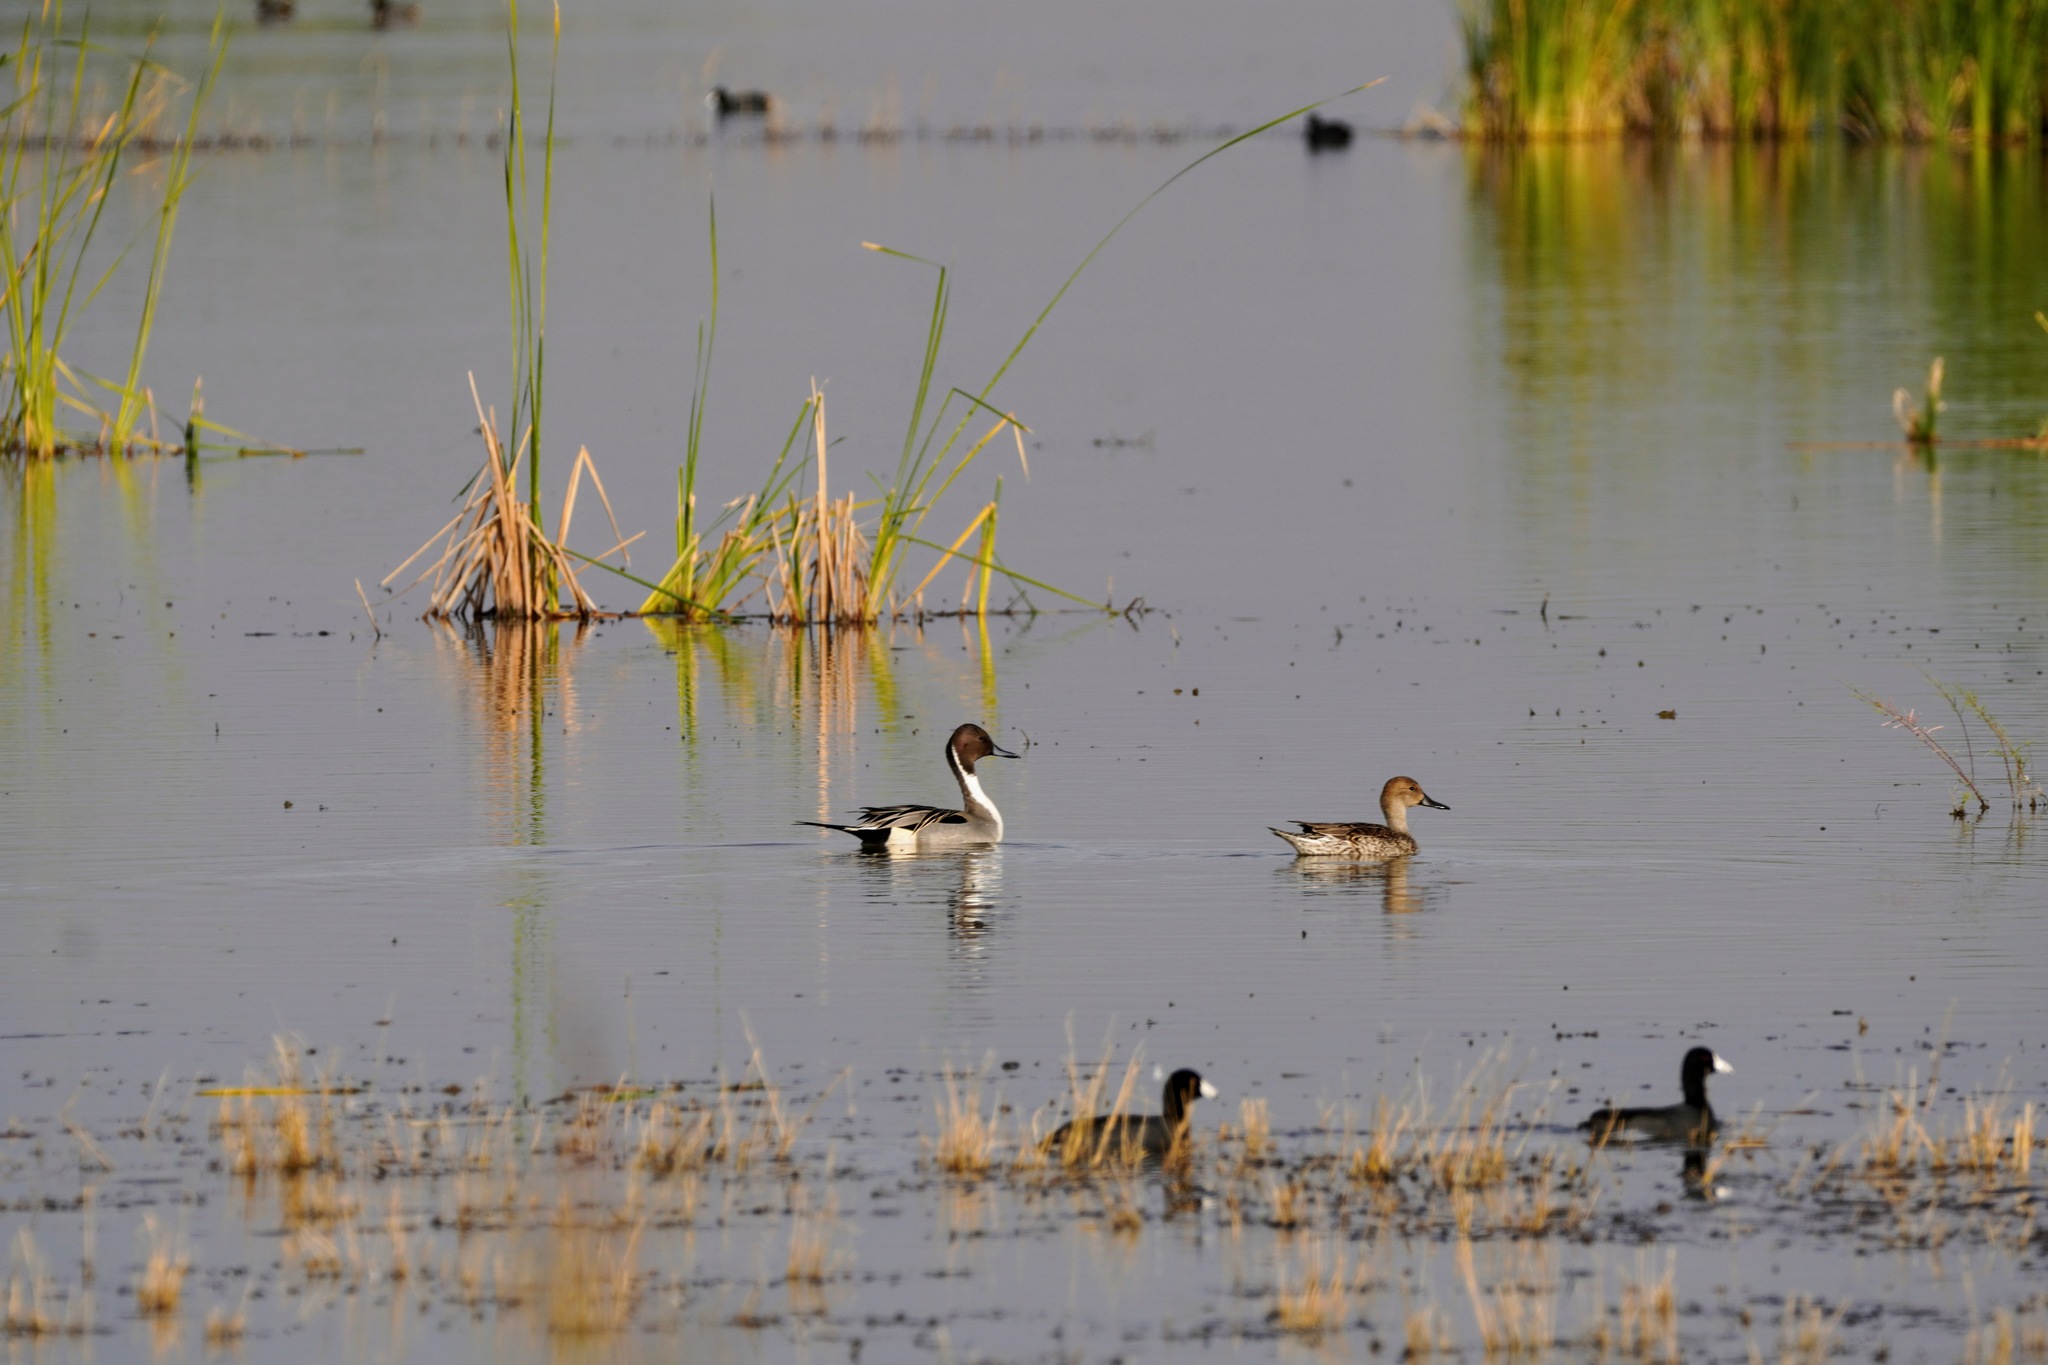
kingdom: Animalia
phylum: Chordata
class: Aves
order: Anseriformes
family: Anatidae
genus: Anas
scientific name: Anas acuta
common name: Northern pintail
